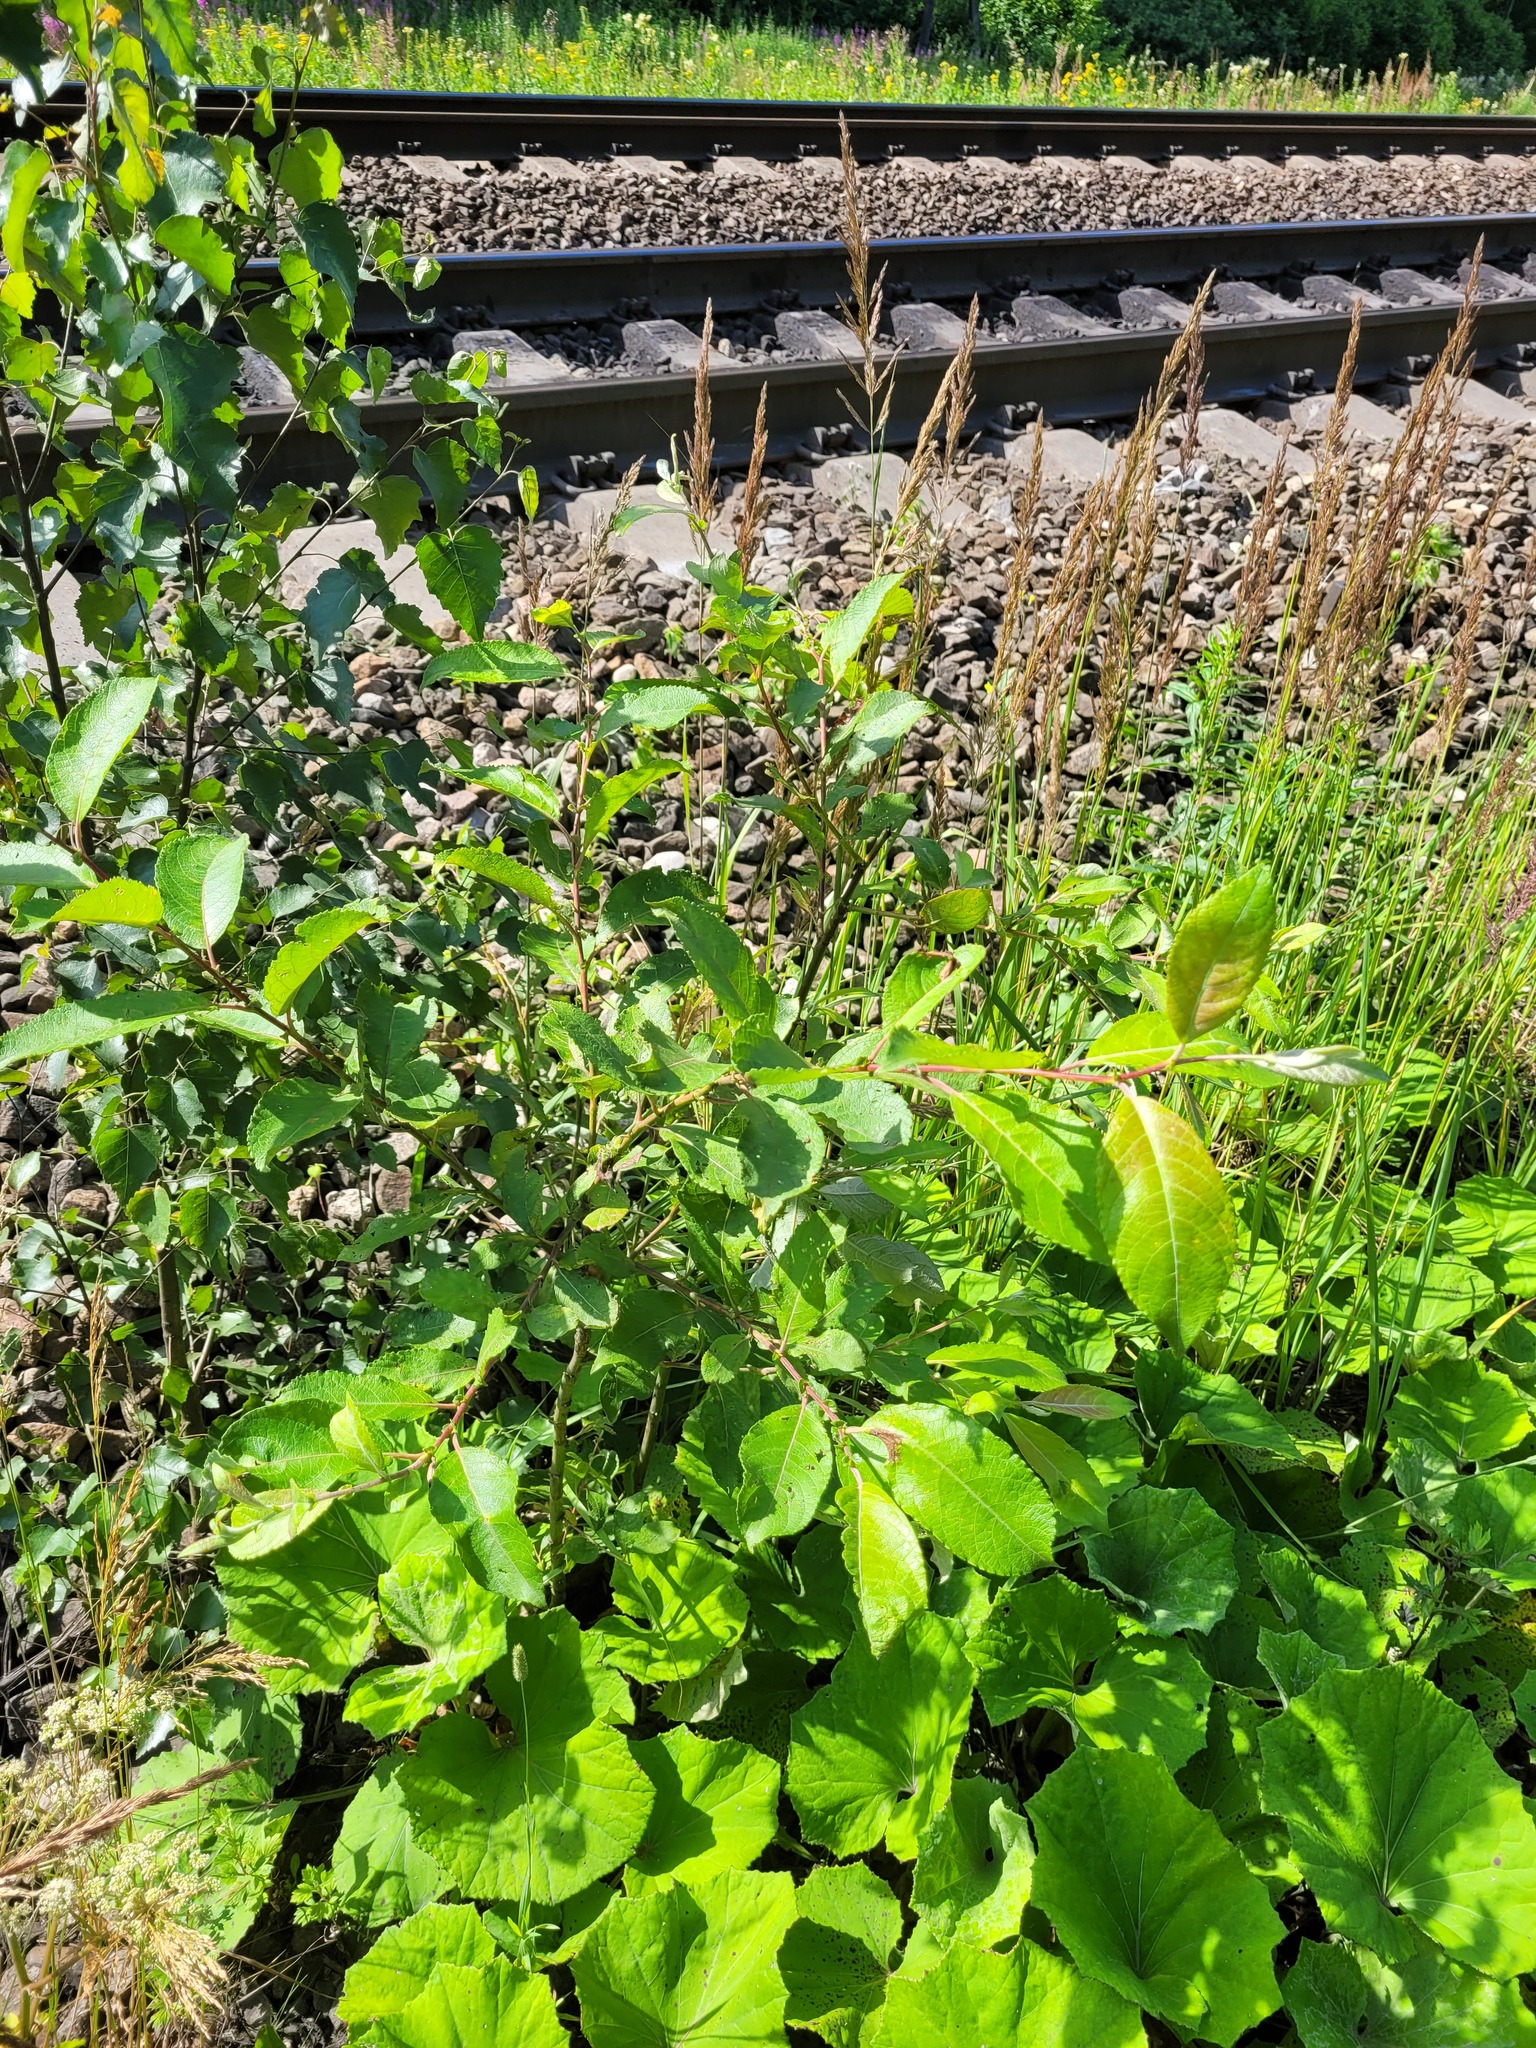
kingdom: Plantae
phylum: Tracheophyta
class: Magnoliopsida
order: Malpighiales
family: Salicaceae
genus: Salix
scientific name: Salix caprea
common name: Goat willow
